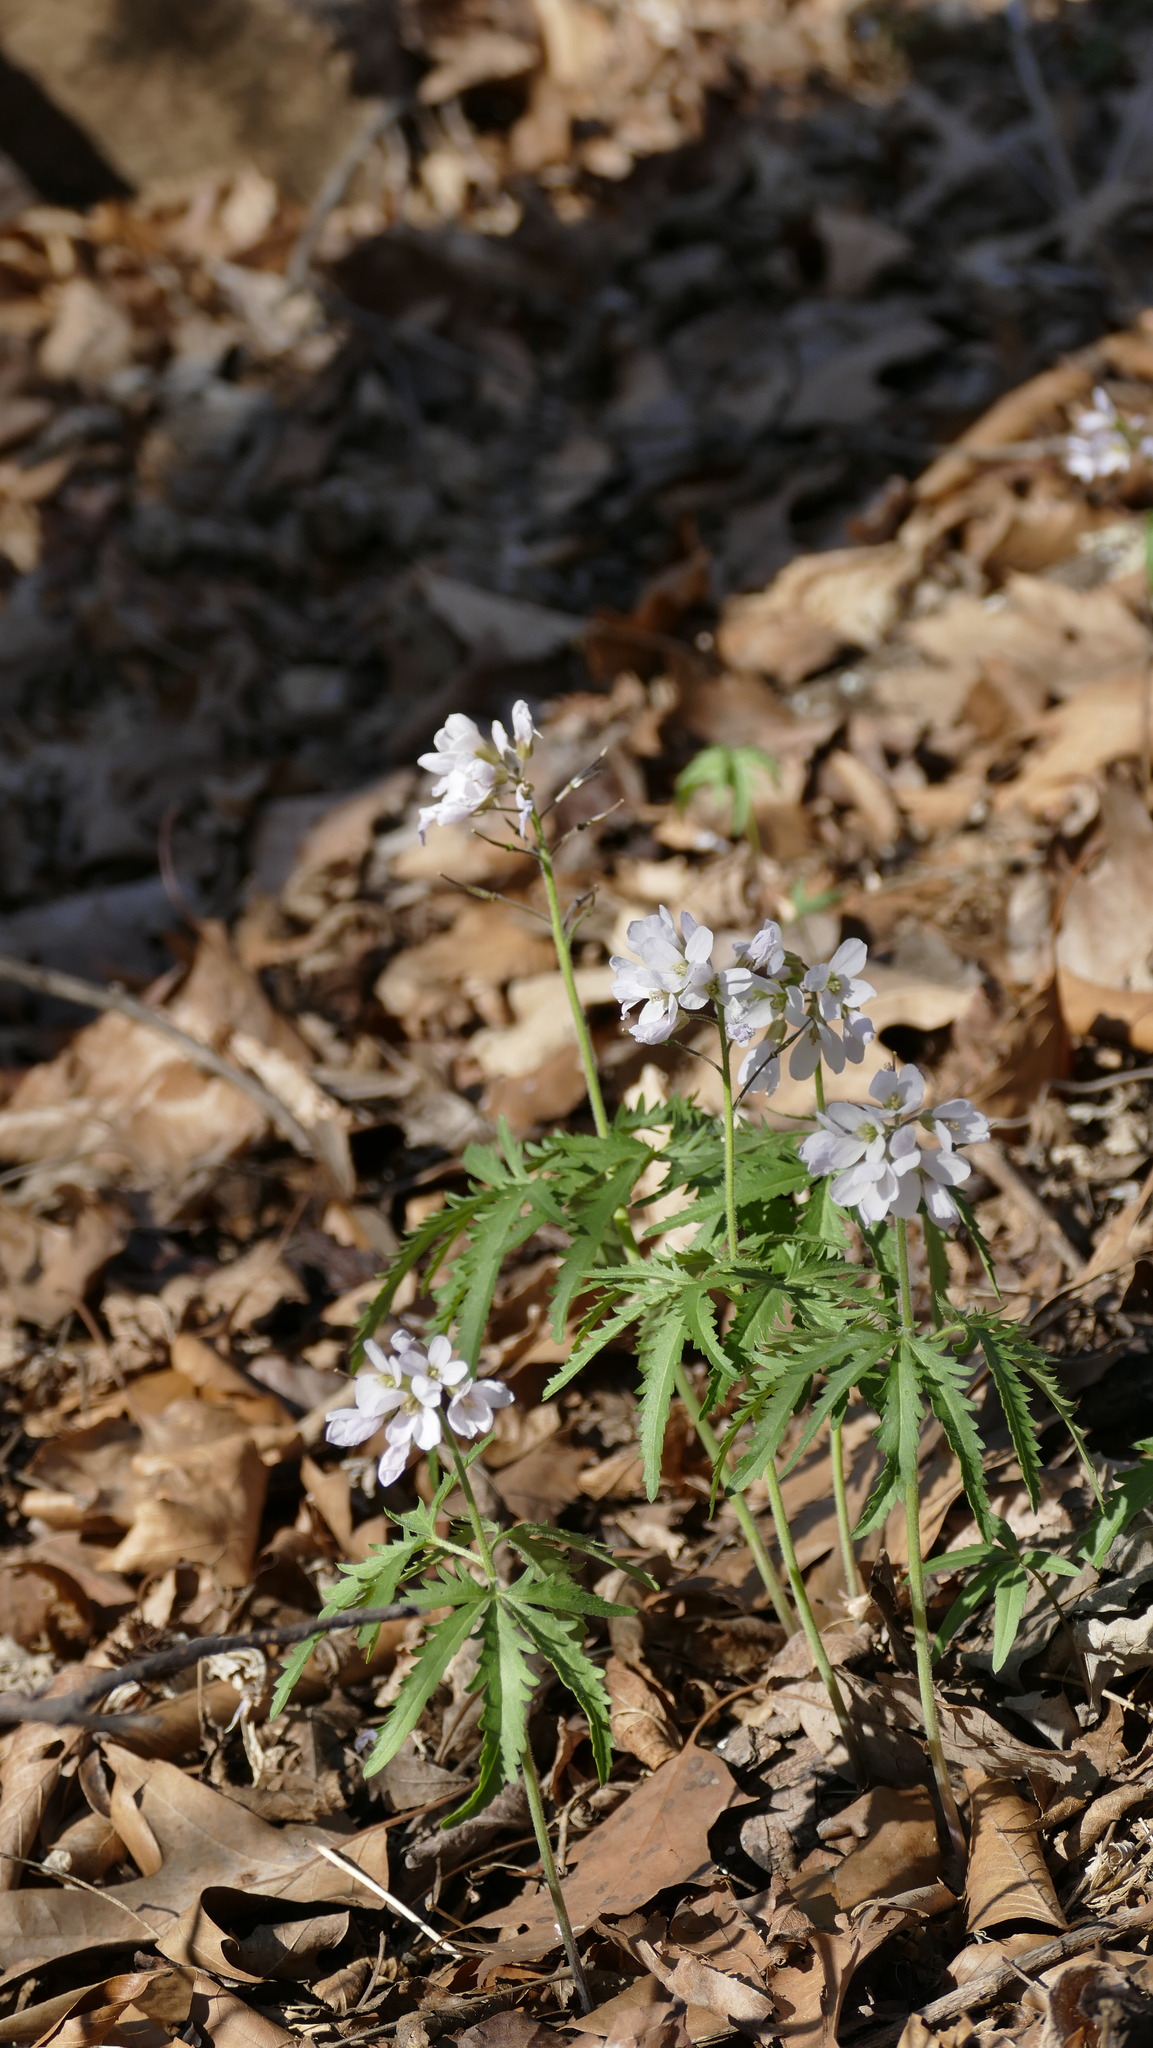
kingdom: Plantae
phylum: Tracheophyta
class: Magnoliopsida
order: Brassicales
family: Brassicaceae
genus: Cardamine
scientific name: Cardamine concatenata
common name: Cut-leaf toothcup
